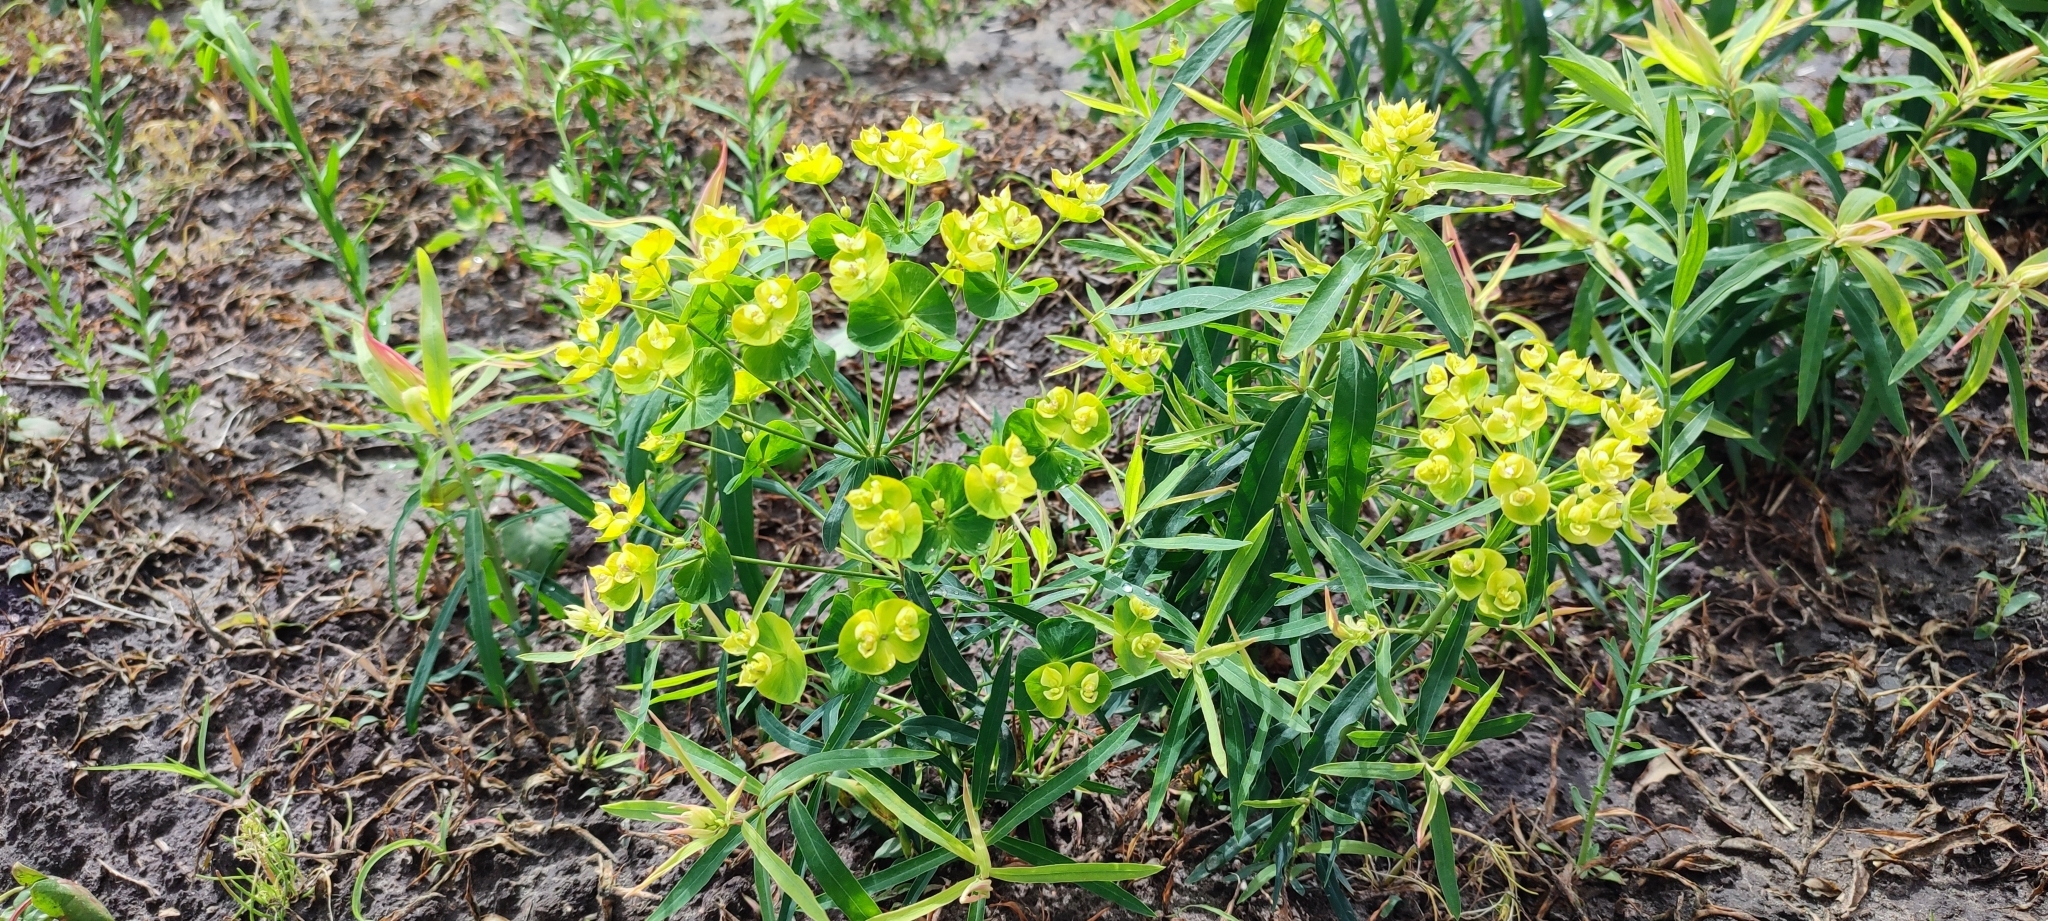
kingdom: Plantae
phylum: Tracheophyta
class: Magnoliopsida
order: Malpighiales
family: Euphorbiaceae
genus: Euphorbia
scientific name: Euphorbia virgata
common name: Leafy spurge
